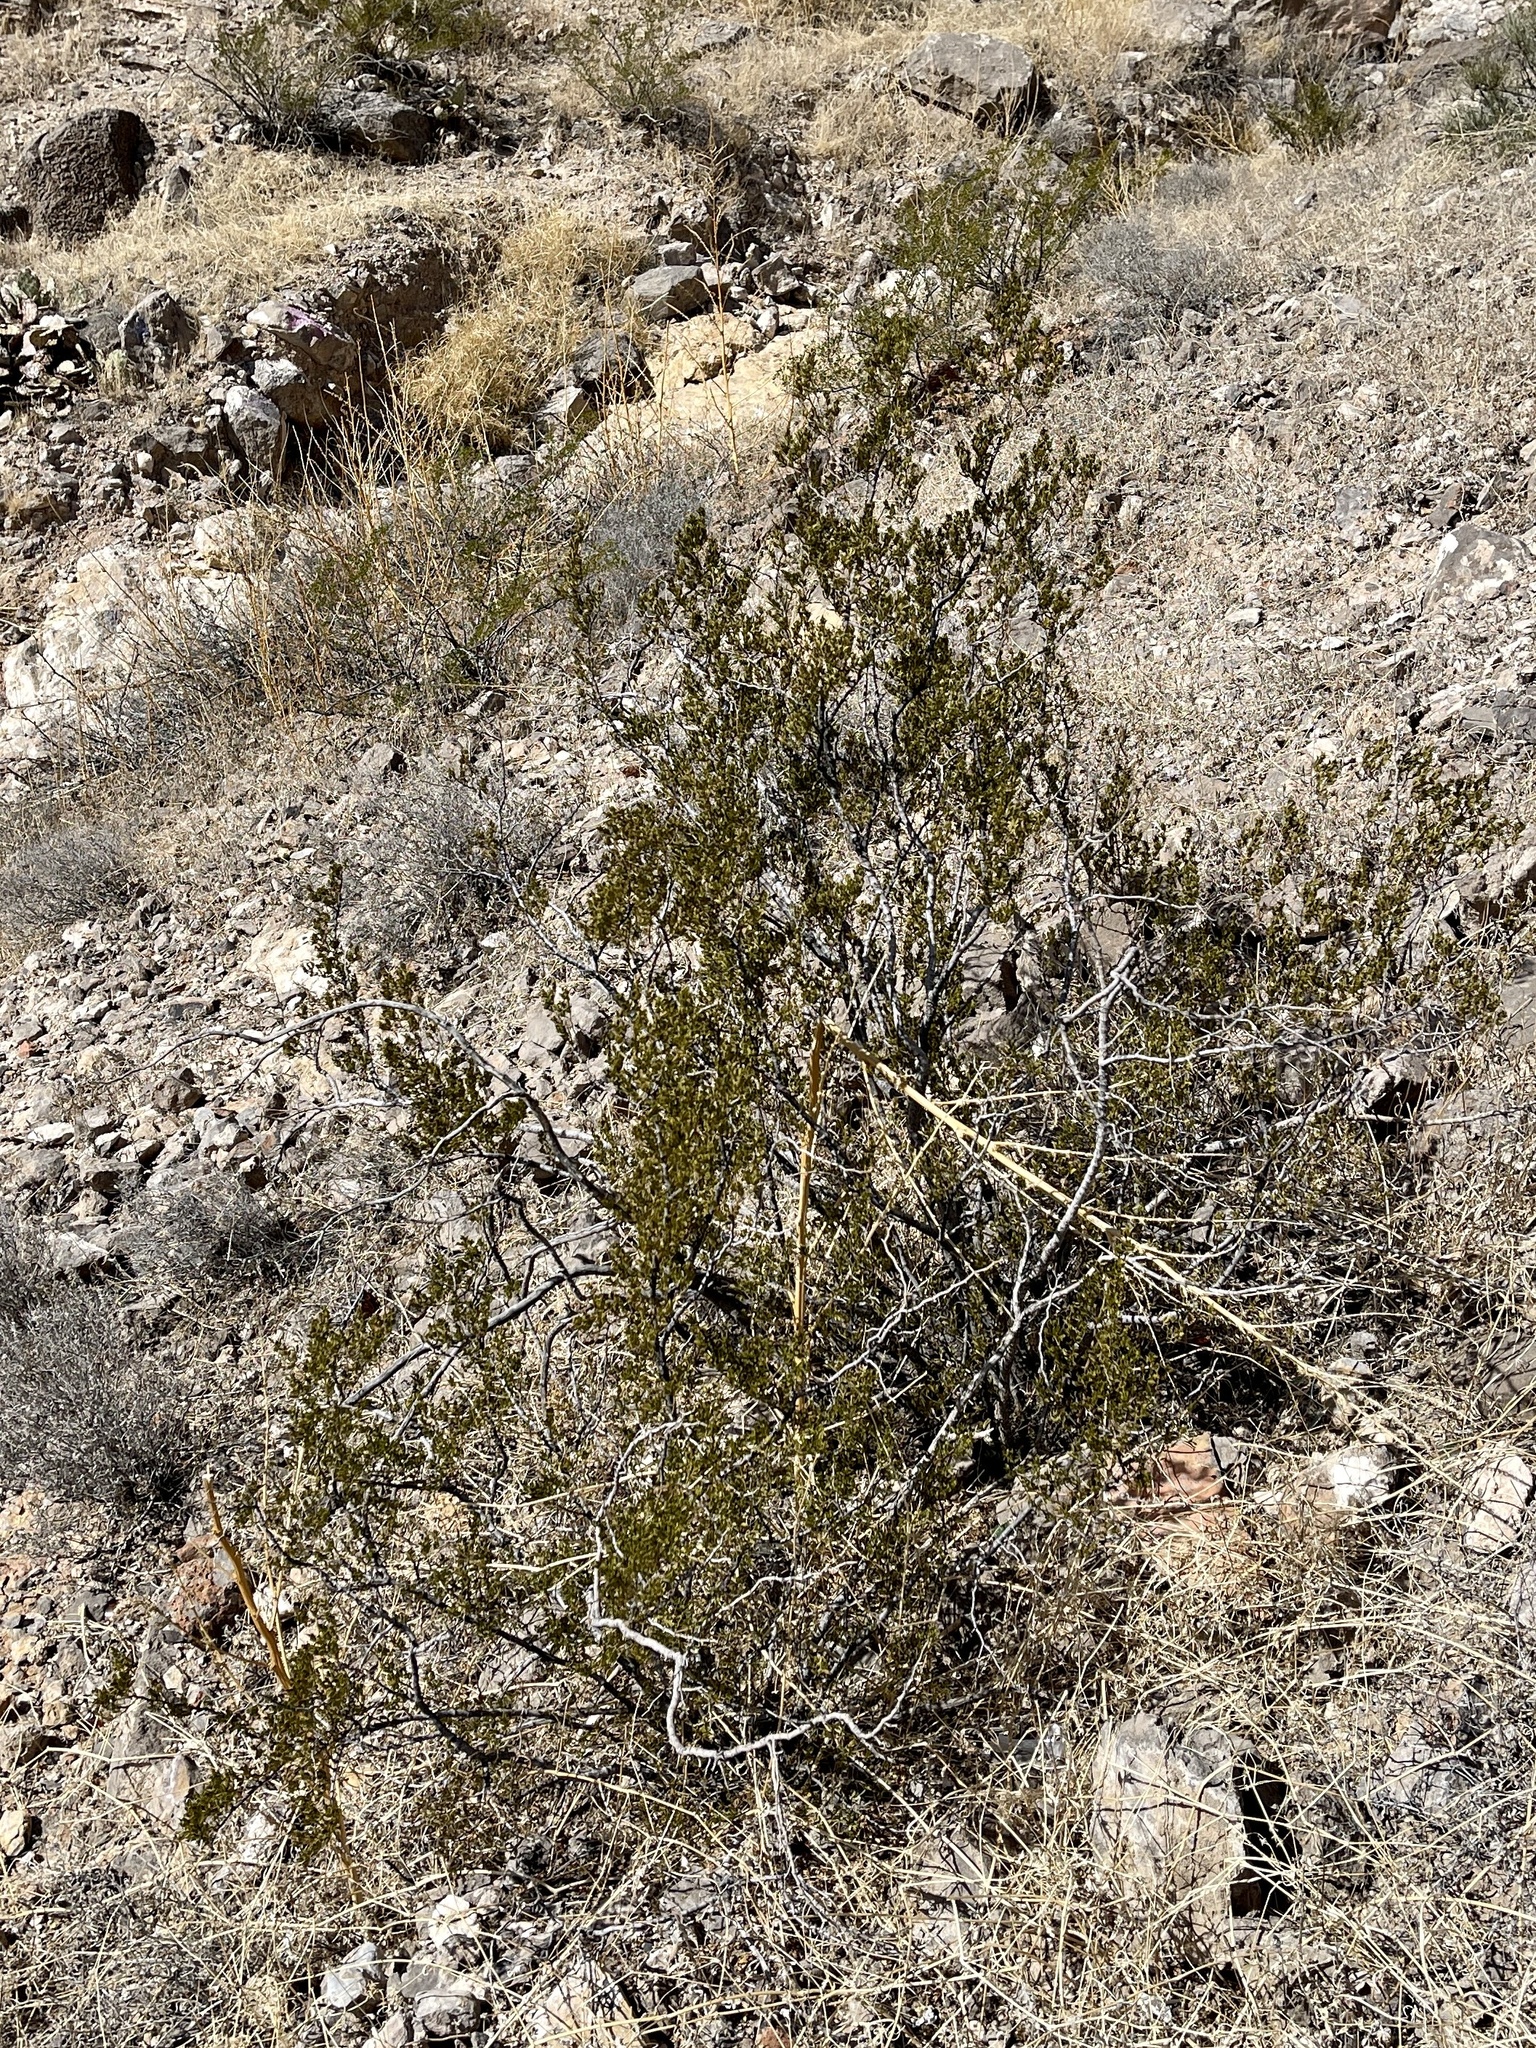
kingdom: Plantae
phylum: Tracheophyta
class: Magnoliopsida
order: Zygophyllales
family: Zygophyllaceae
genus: Larrea
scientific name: Larrea tridentata
